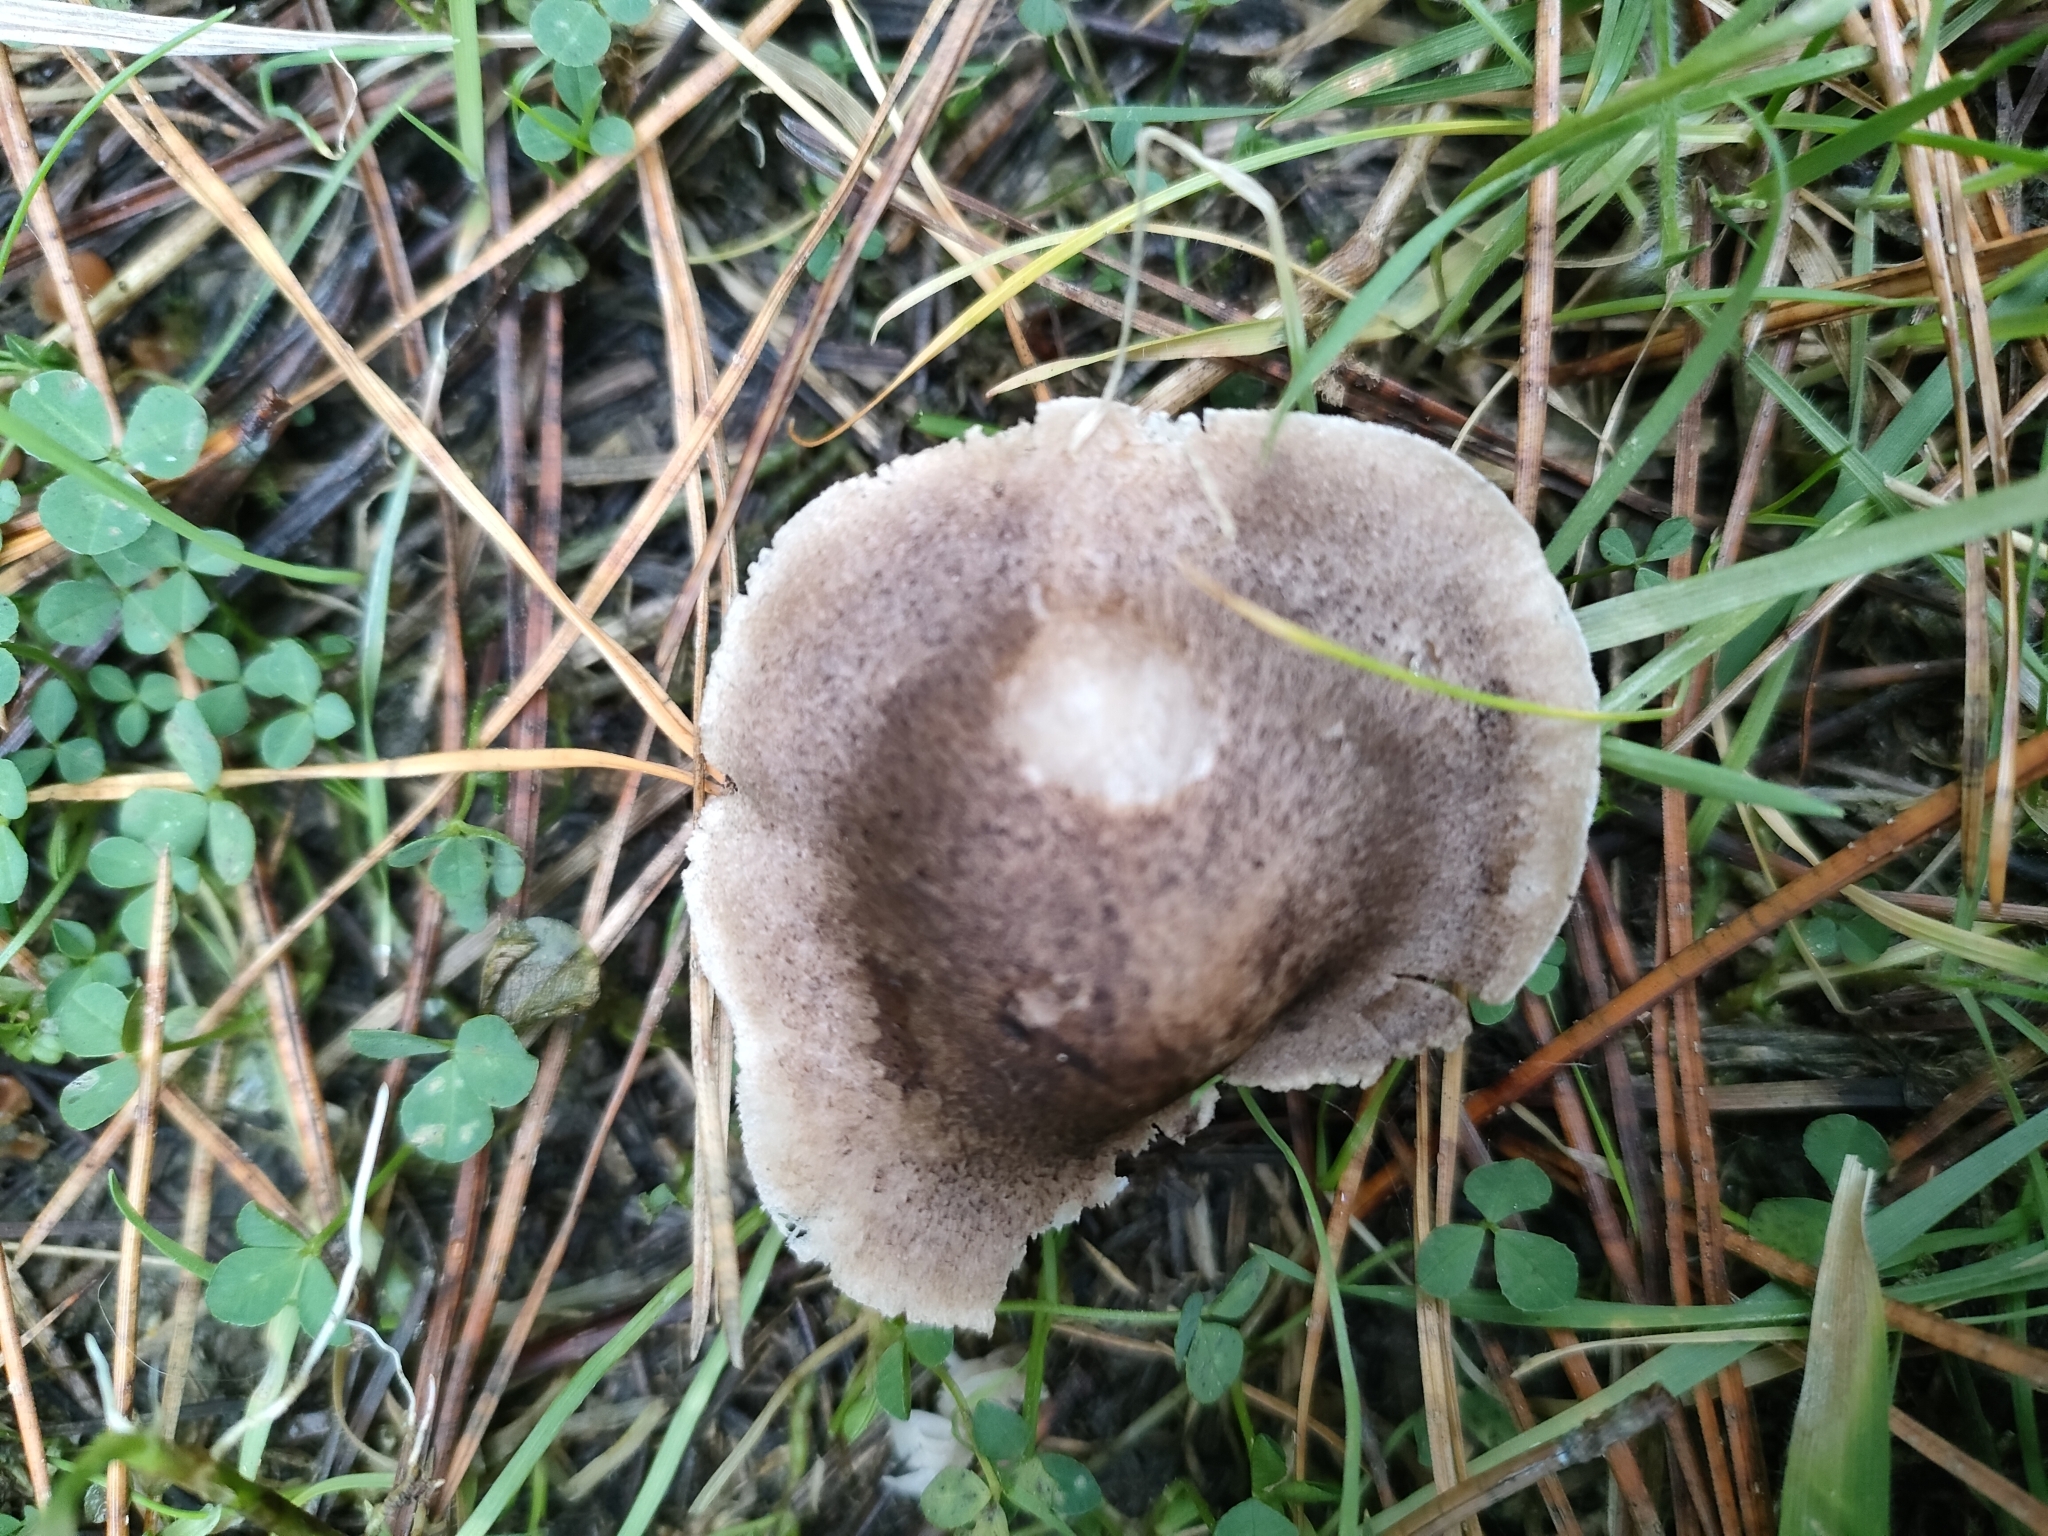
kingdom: Fungi
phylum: Basidiomycota
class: Agaricomycetes
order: Agaricales
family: Tricholomataceae
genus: Tricholoma
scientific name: Tricholoma terreum
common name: Grey knight
